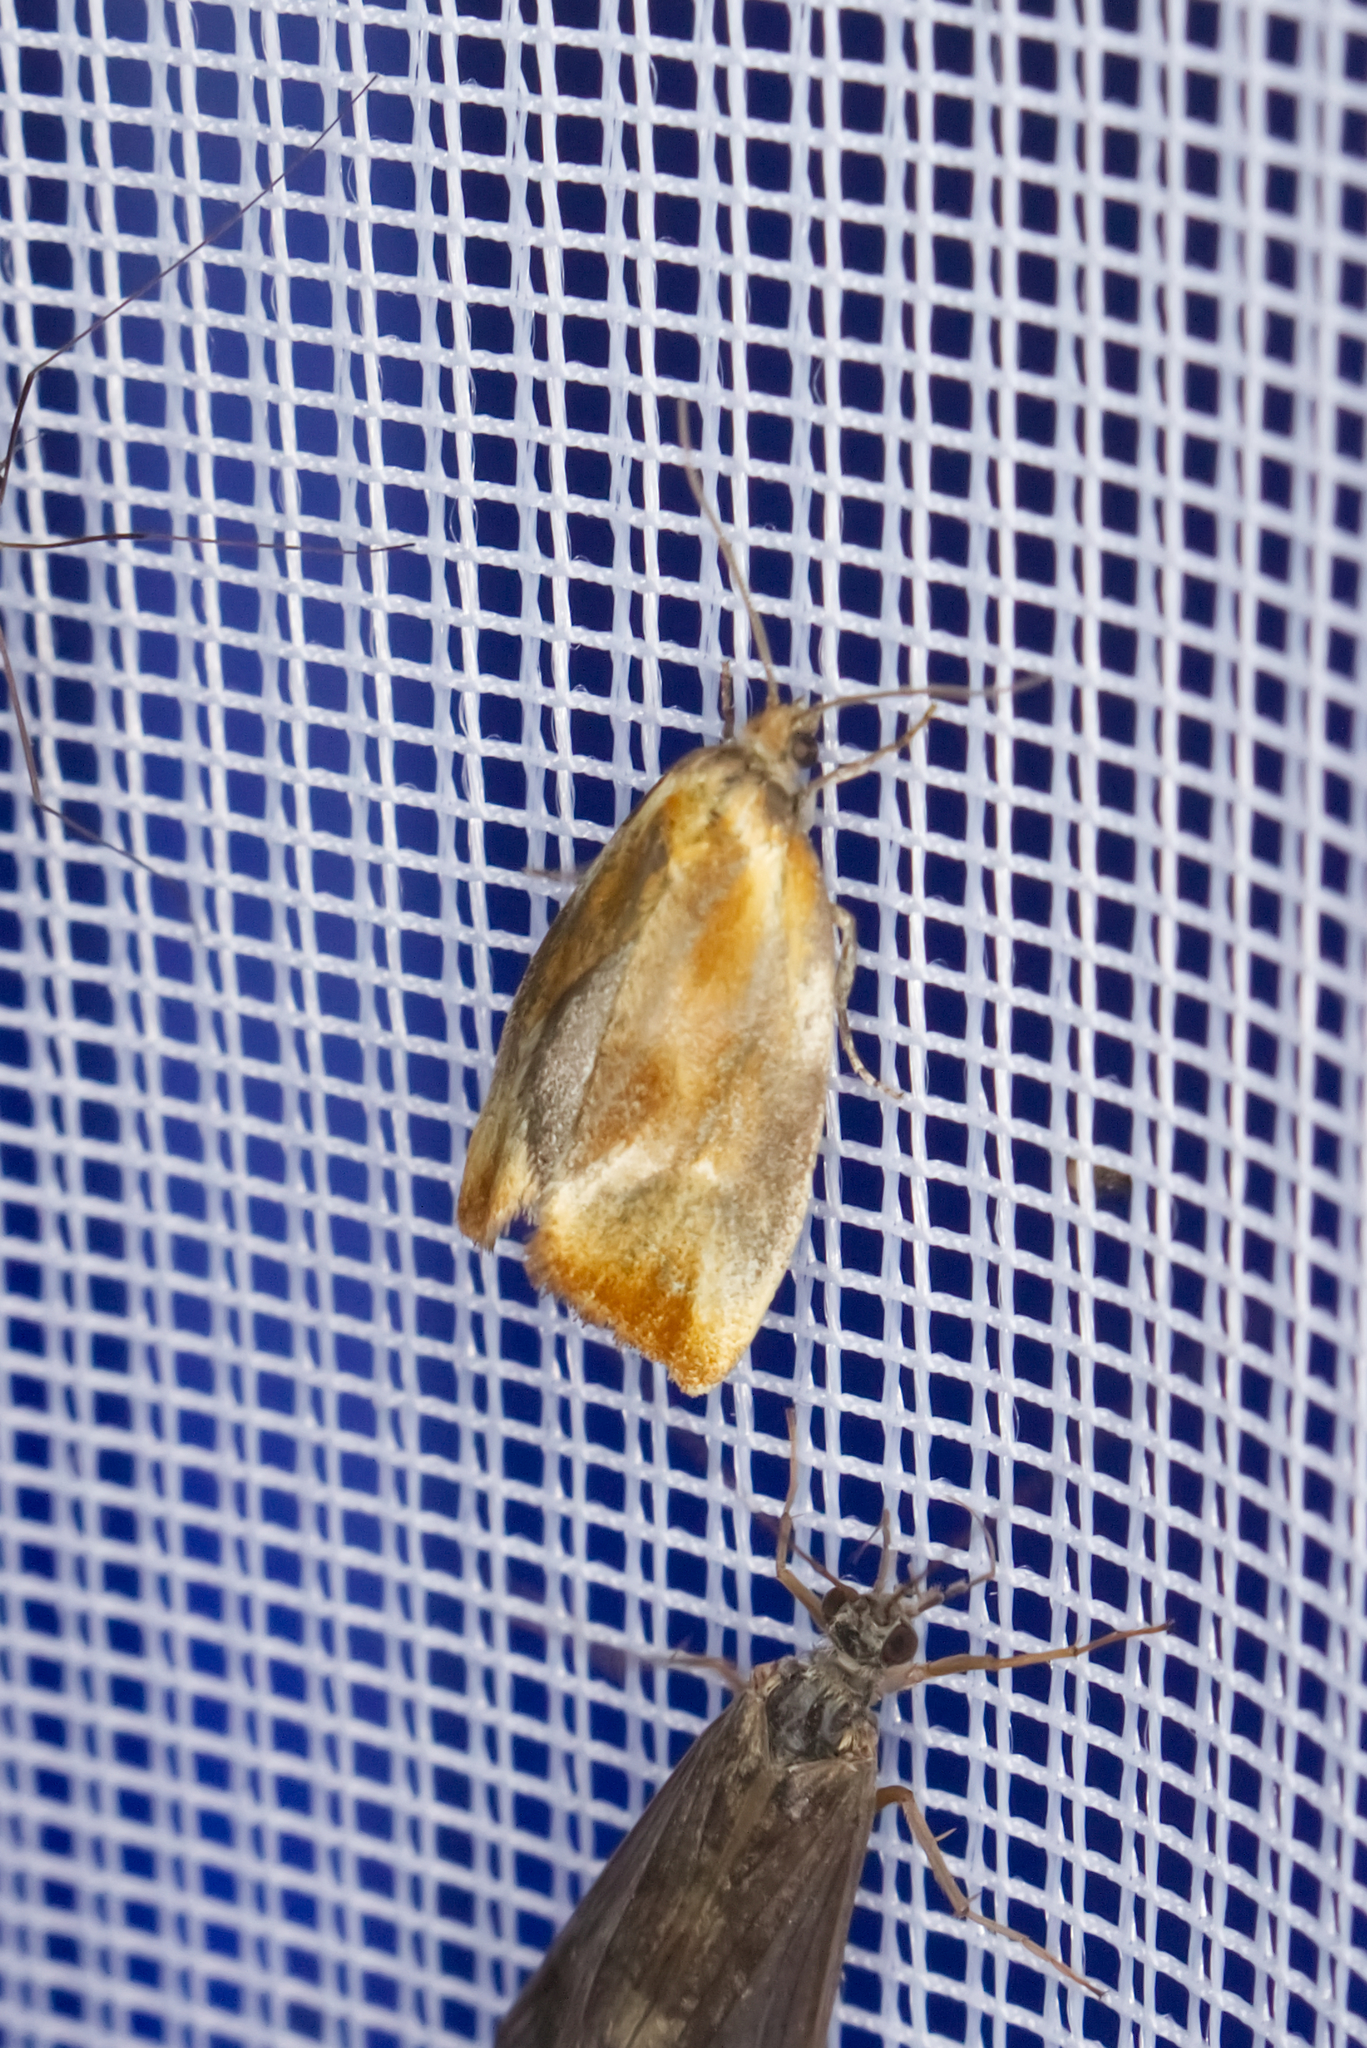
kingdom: Animalia
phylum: Arthropoda
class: Insecta
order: Lepidoptera
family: Tortricidae
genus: Eulia
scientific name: Eulia ministrana
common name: Brassy twist
